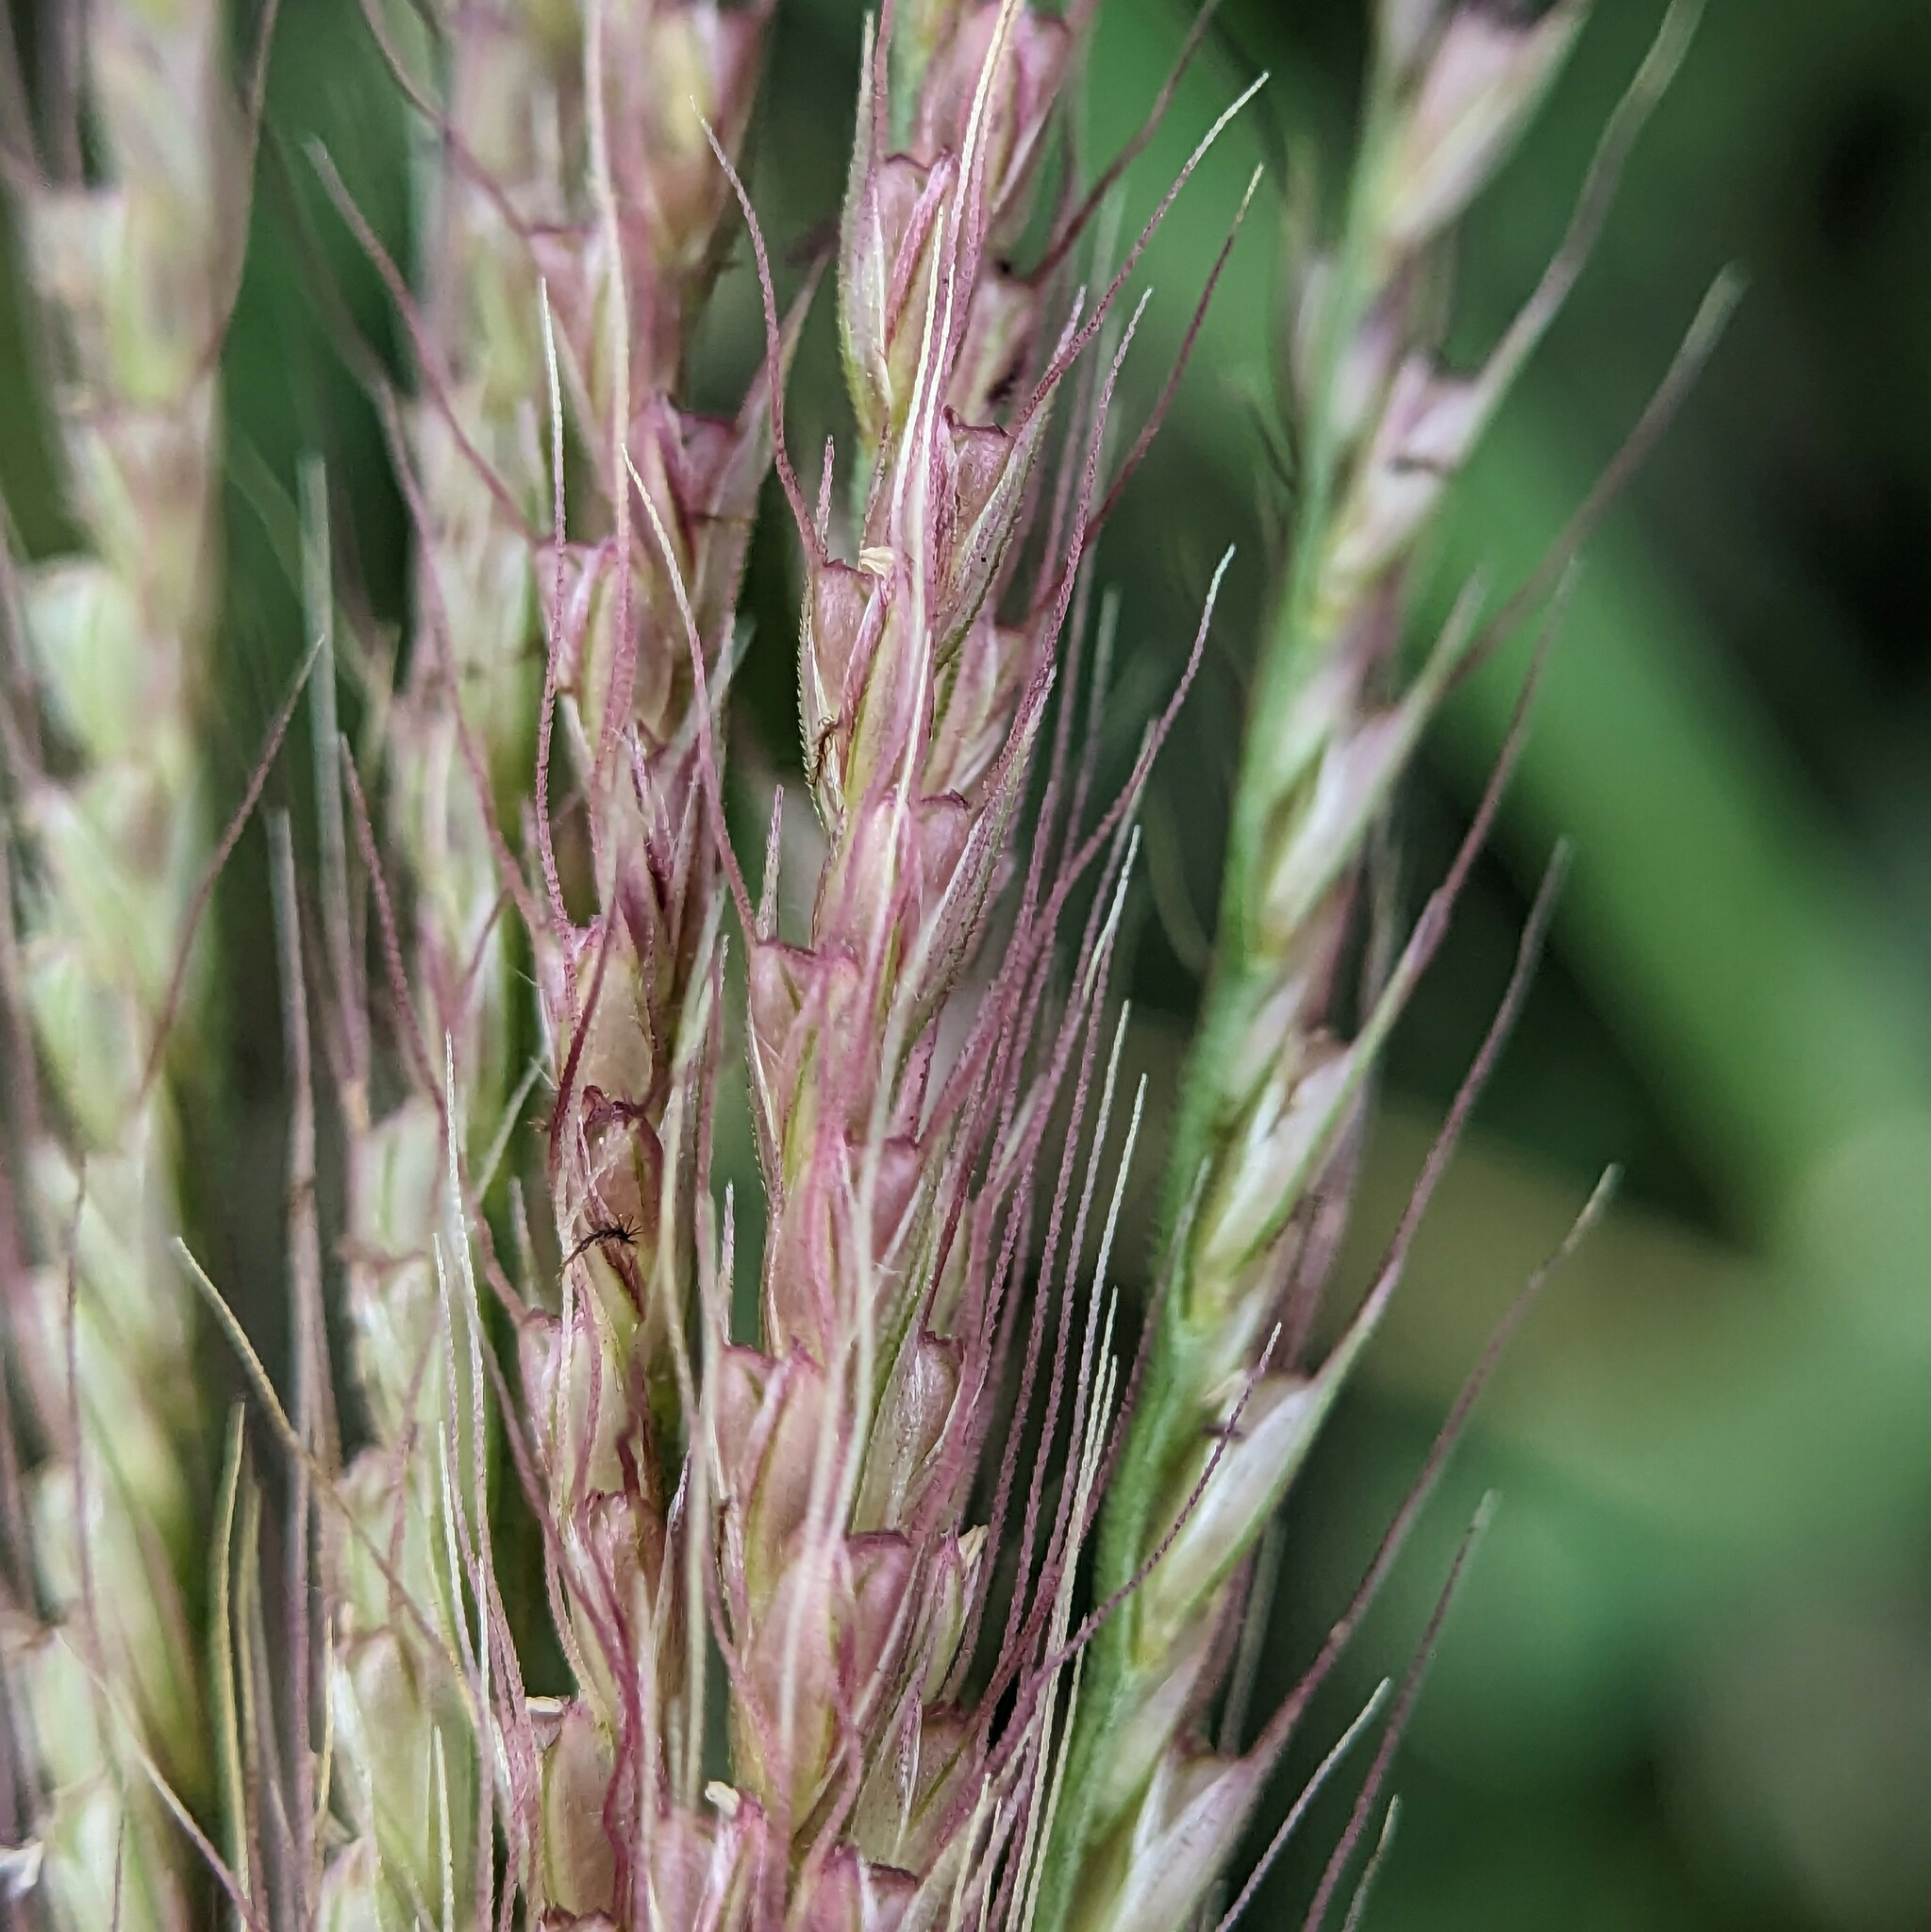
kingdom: Plantae
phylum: Tracheophyta
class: Liliopsida
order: Poales
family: Poaceae
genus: Chloris
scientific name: Chloris verticillata
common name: Tumble windmill grass
